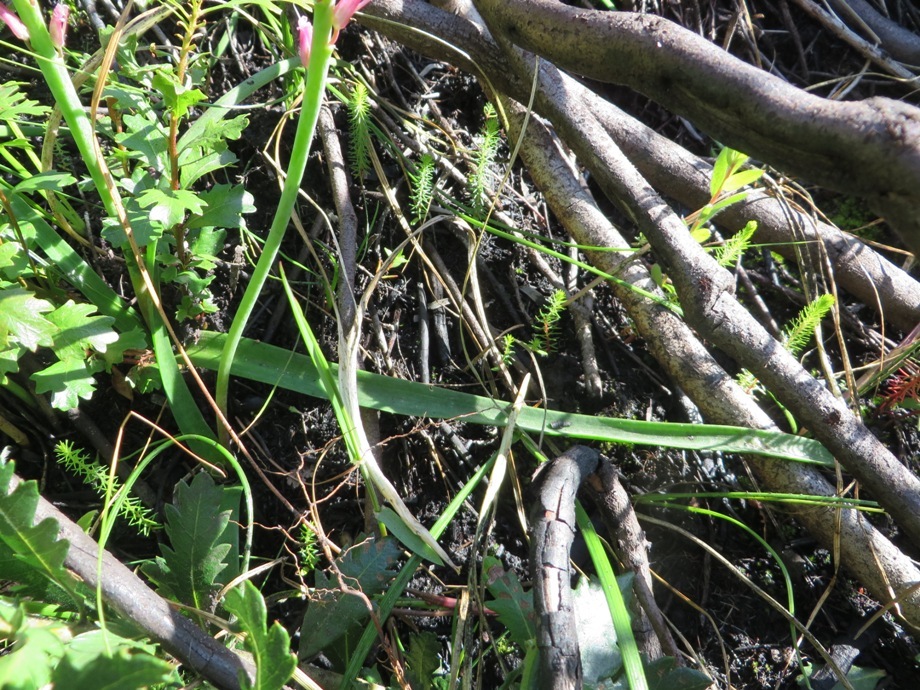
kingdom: Plantae
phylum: Tracheophyta
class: Liliopsida
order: Asparagales
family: Asparagaceae
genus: Lachenalia
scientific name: Lachenalia rosea
